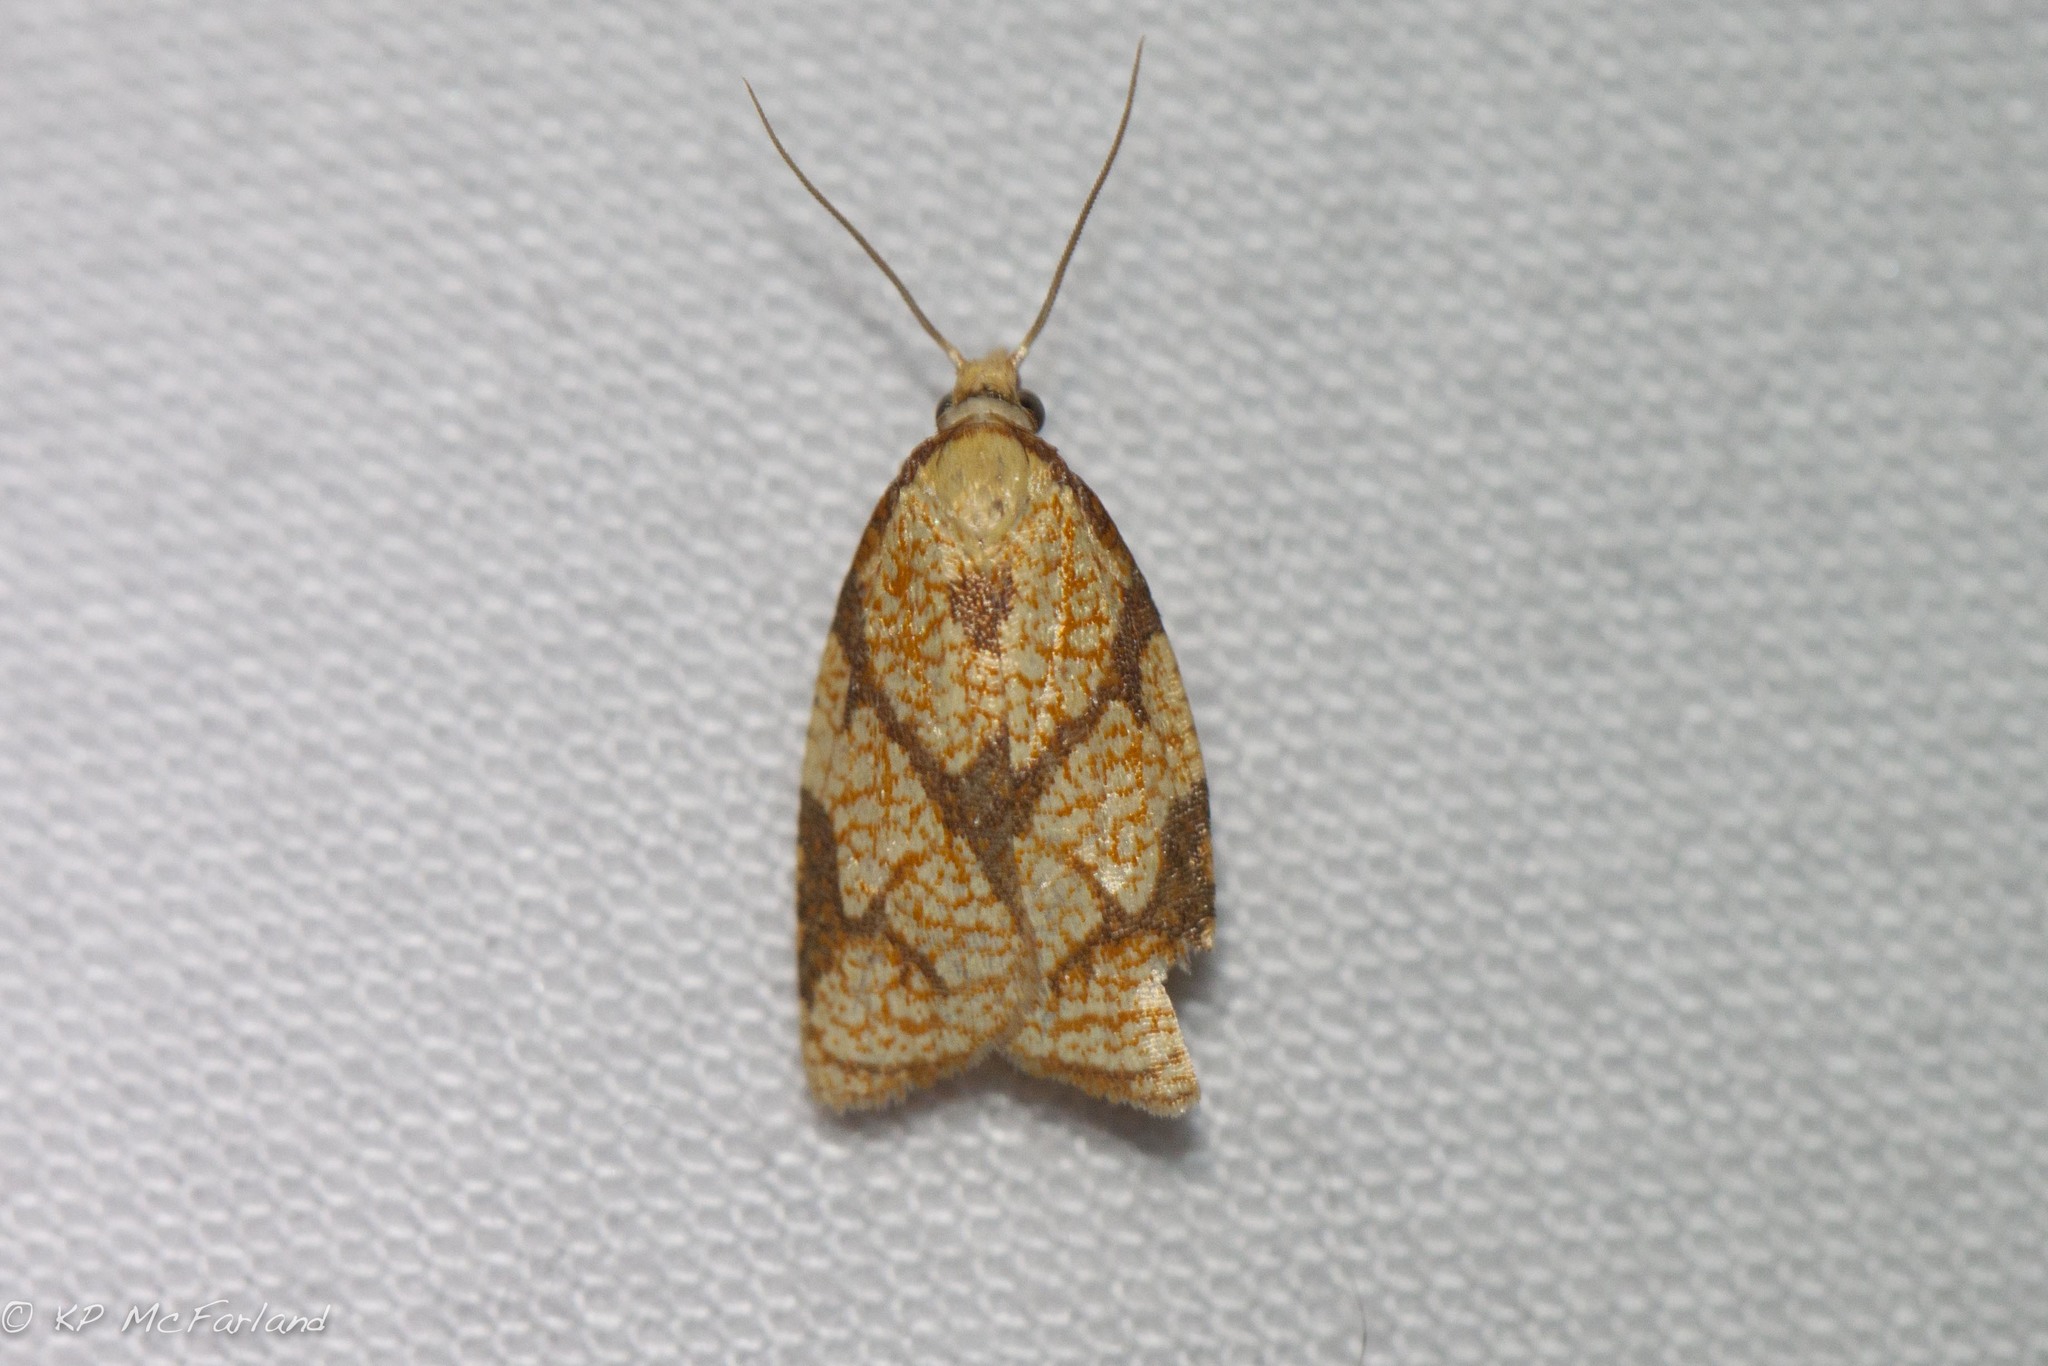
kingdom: Animalia
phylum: Arthropoda
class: Insecta
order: Lepidoptera
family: Tortricidae
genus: Cenopis
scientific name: Cenopis reticulatana
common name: Reticulated fruitworm moth
